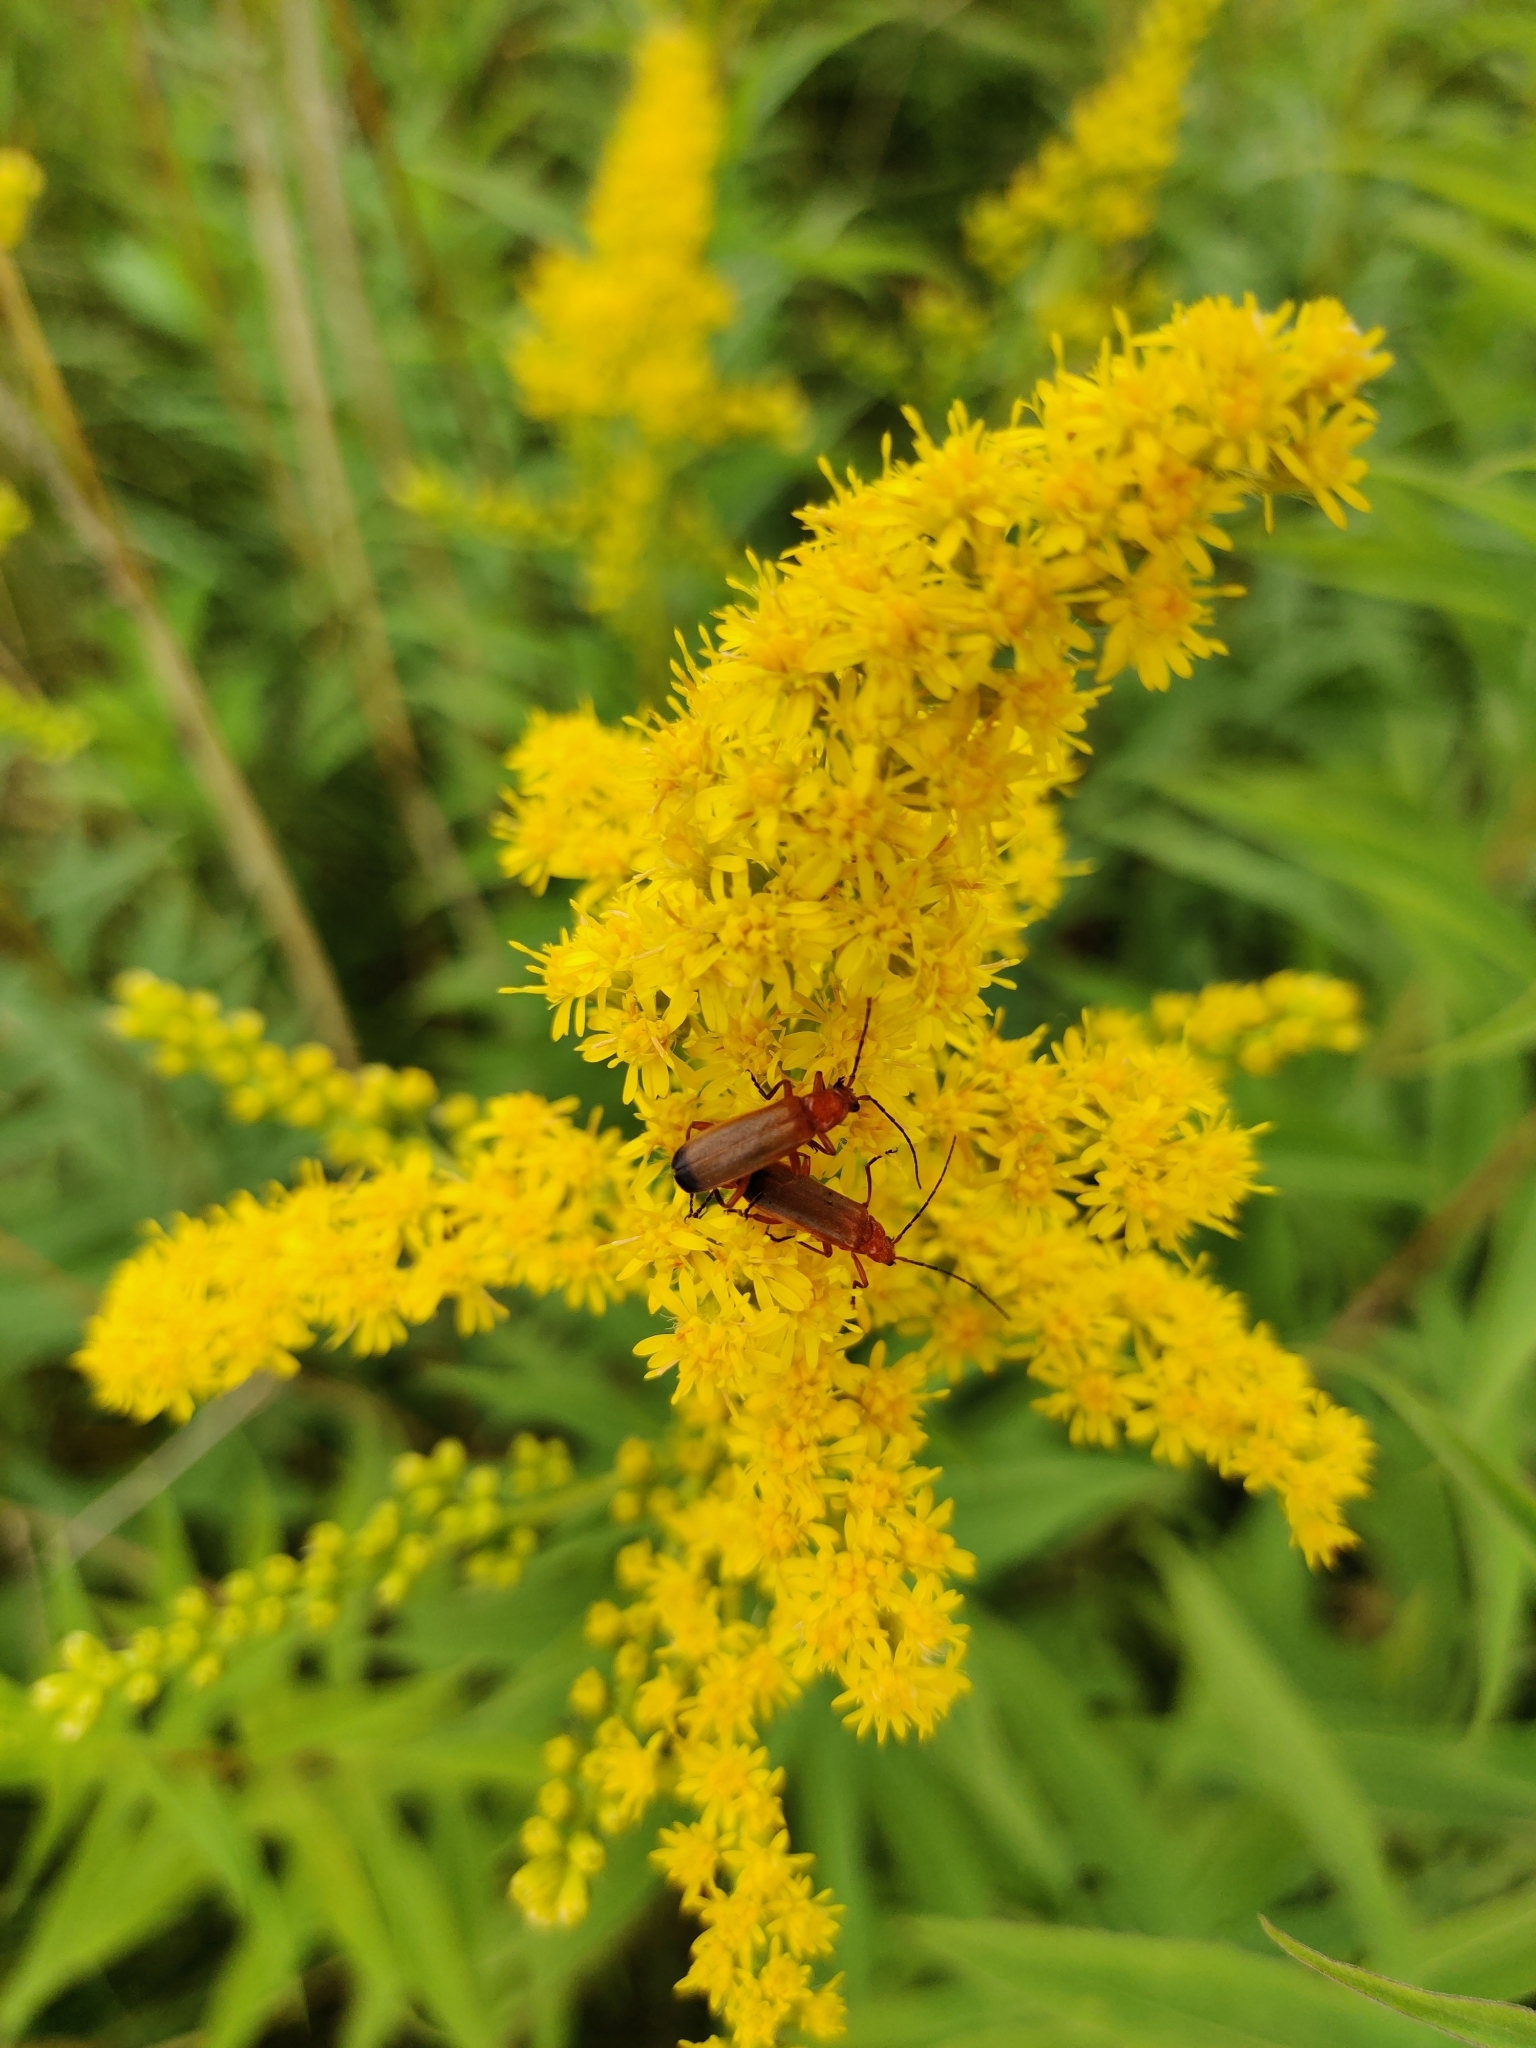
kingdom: Animalia
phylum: Arthropoda
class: Insecta
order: Coleoptera
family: Cantharidae
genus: Rhagonycha
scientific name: Rhagonycha fulva
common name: Common red soldier beetle
